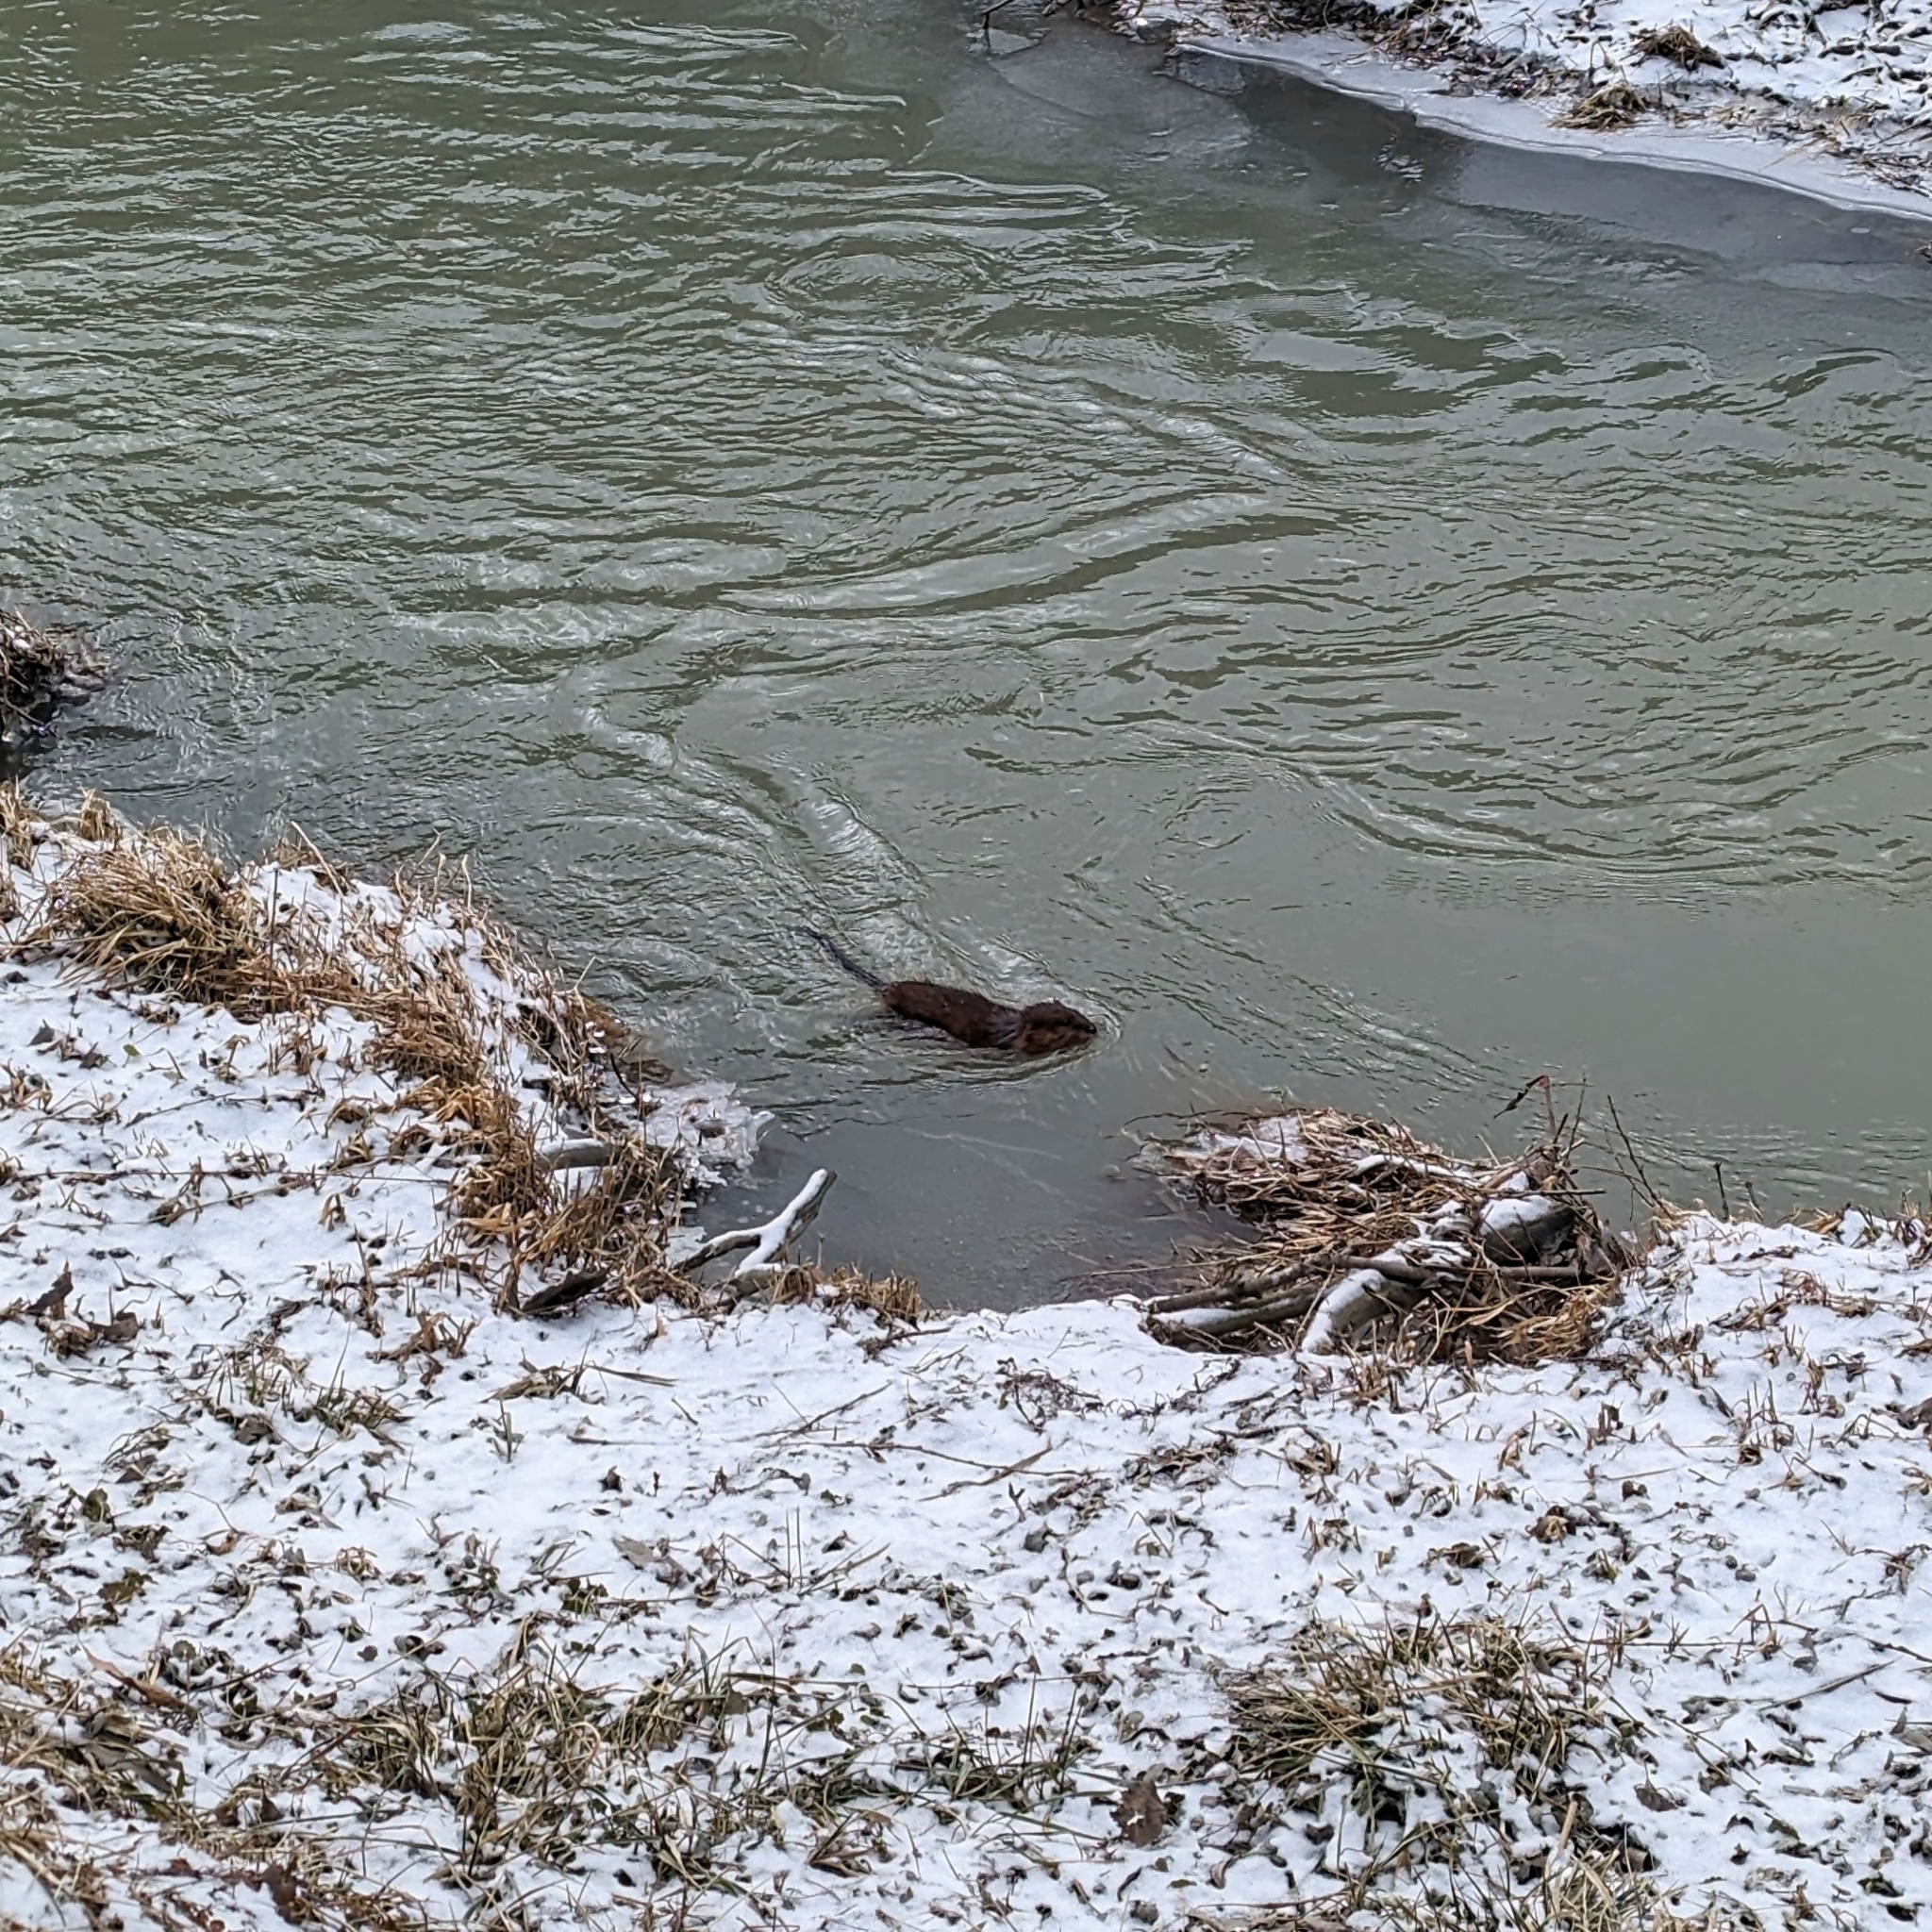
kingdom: Animalia
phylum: Chordata
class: Mammalia
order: Rodentia
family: Cricetidae
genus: Ondatra
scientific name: Ondatra zibethicus
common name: Muskrat
